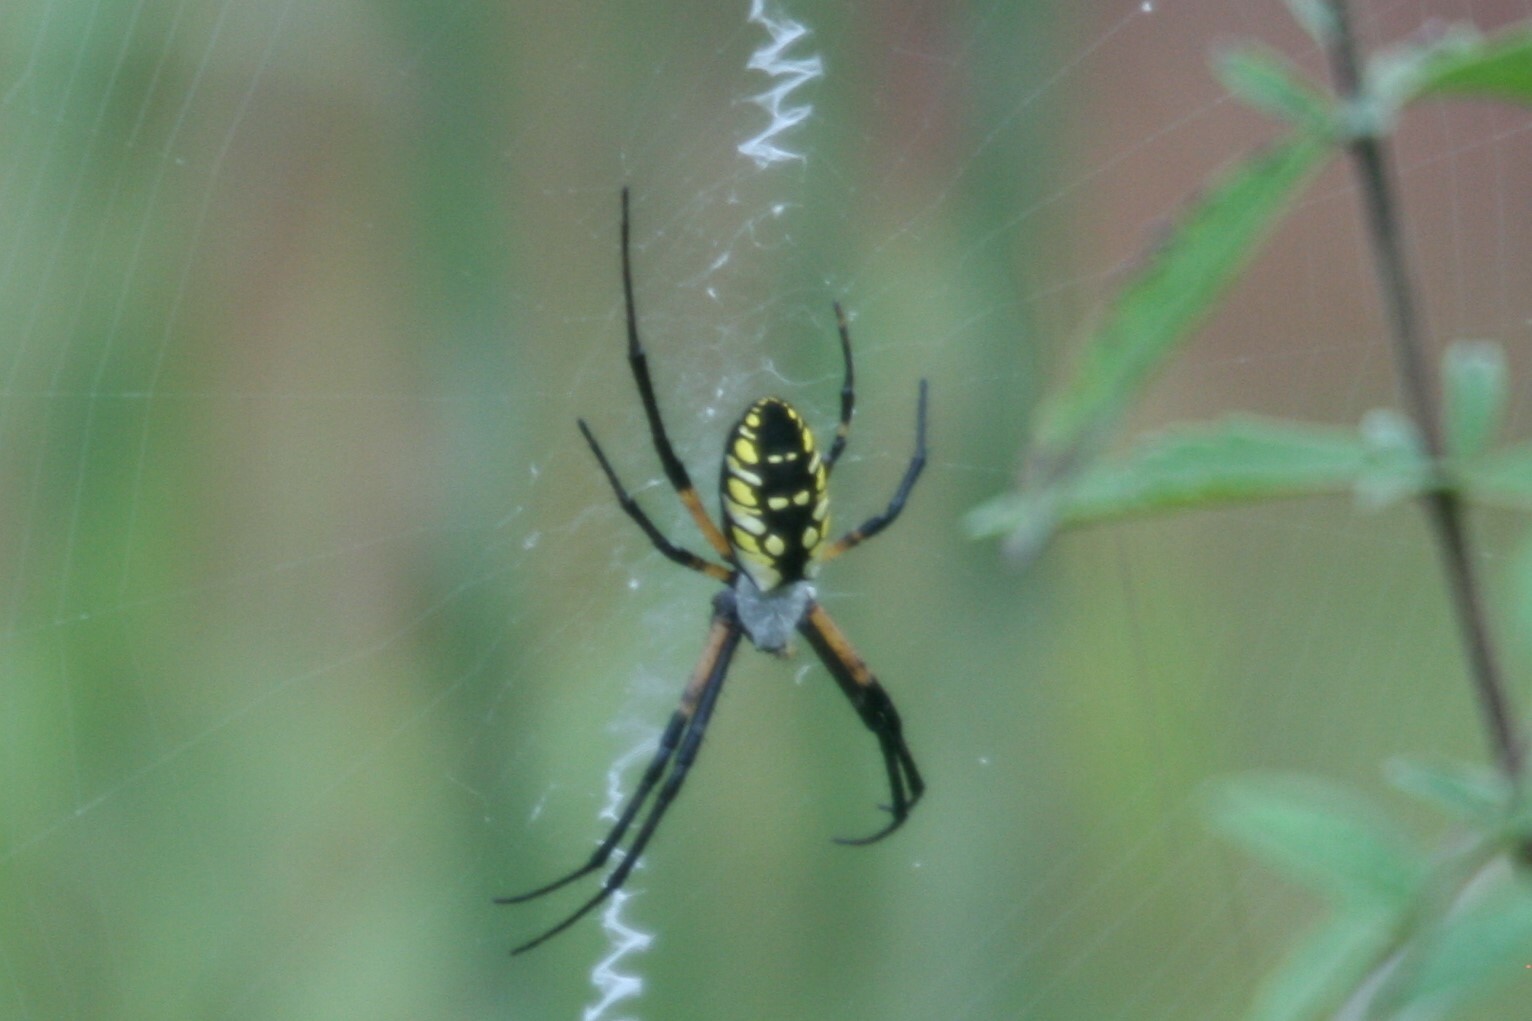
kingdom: Animalia
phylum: Arthropoda
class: Arachnida
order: Araneae
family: Araneidae
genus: Argiope
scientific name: Argiope aurantia
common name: Orb weavers
